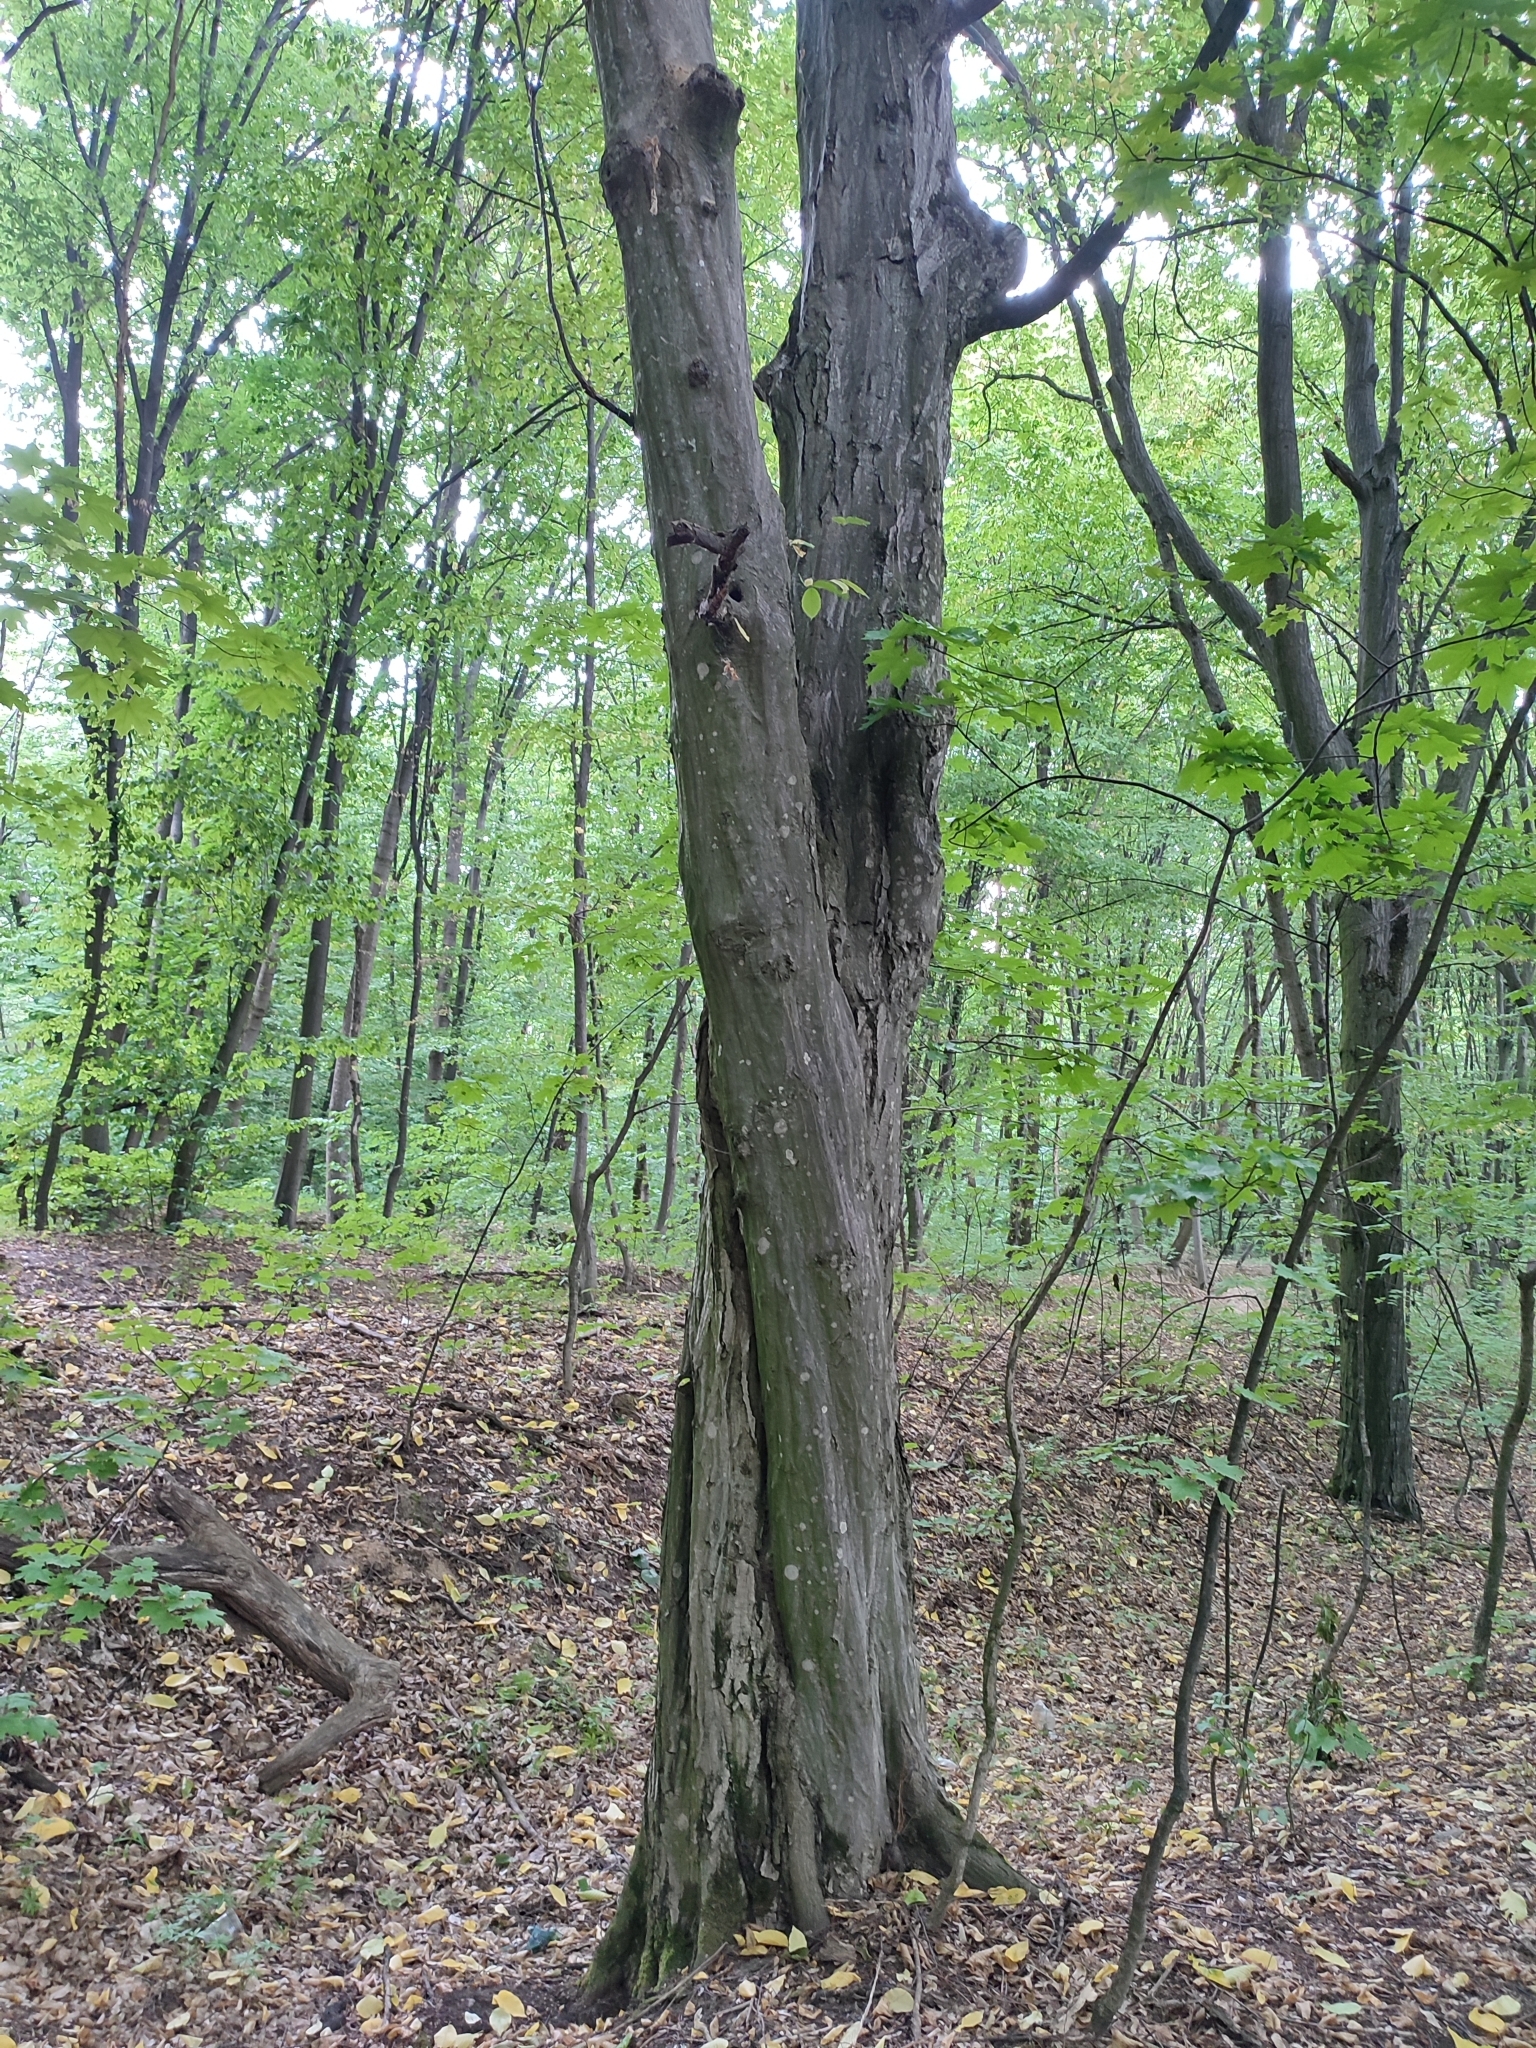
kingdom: Plantae
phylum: Tracheophyta
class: Magnoliopsida
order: Fagales
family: Betulaceae
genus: Carpinus
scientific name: Carpinus betulus
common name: Hornbeam
